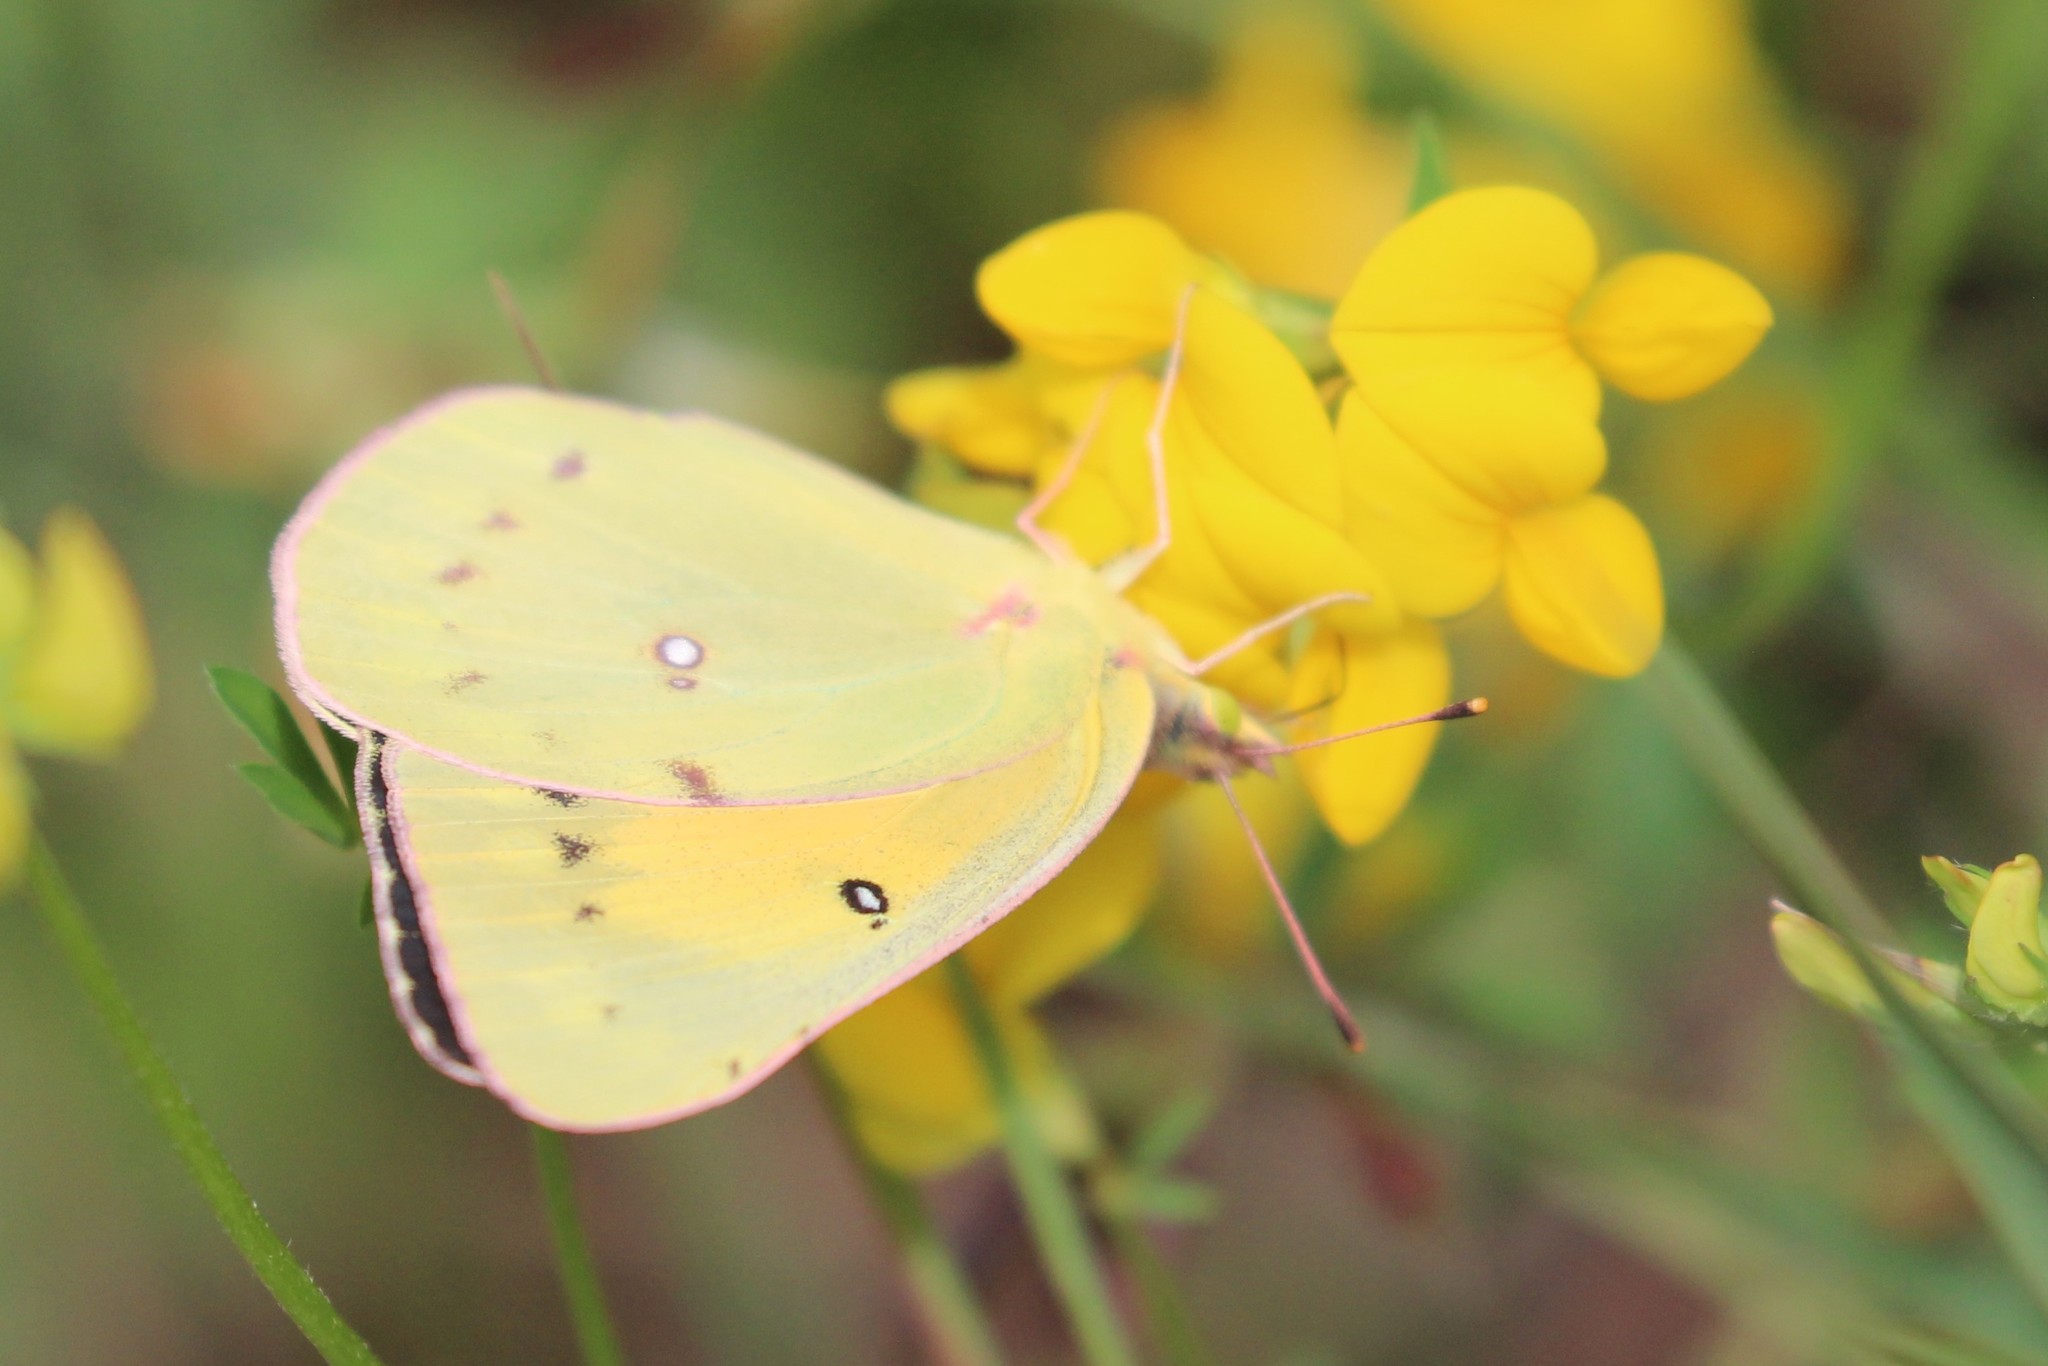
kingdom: Animalia
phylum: Arthropoda
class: Insecta
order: Lepidoptera
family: Pieridae
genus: Colias
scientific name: Colias eurytheme
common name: Alfalfa butterfly
